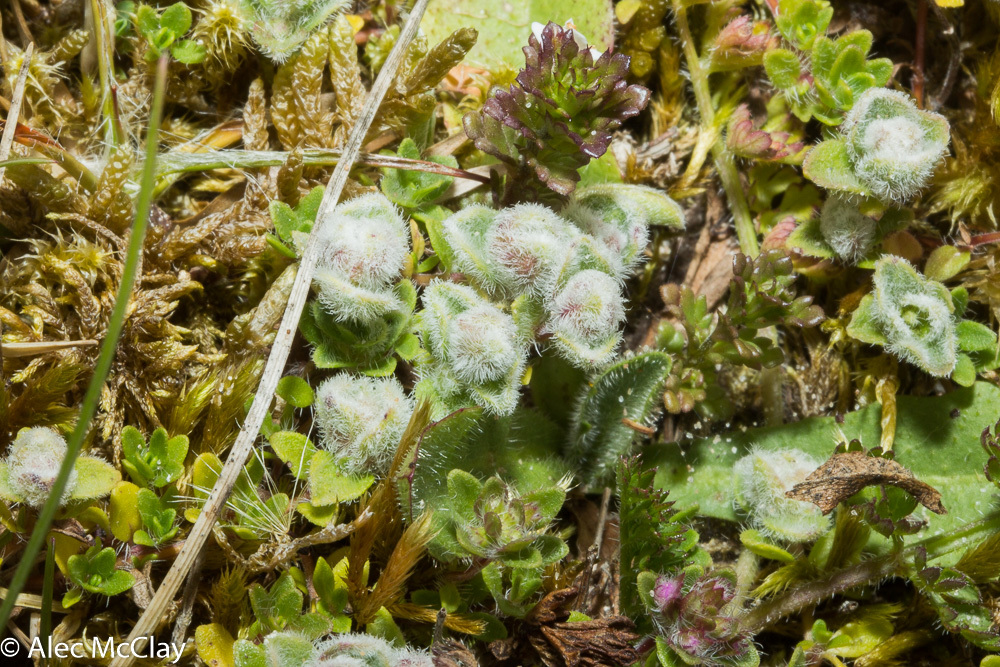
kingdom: Animalia
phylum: Arthropoda
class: Arachnida
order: Trombidiformes
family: Eriophyidae
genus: Aceria
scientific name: Aceria thomasi
